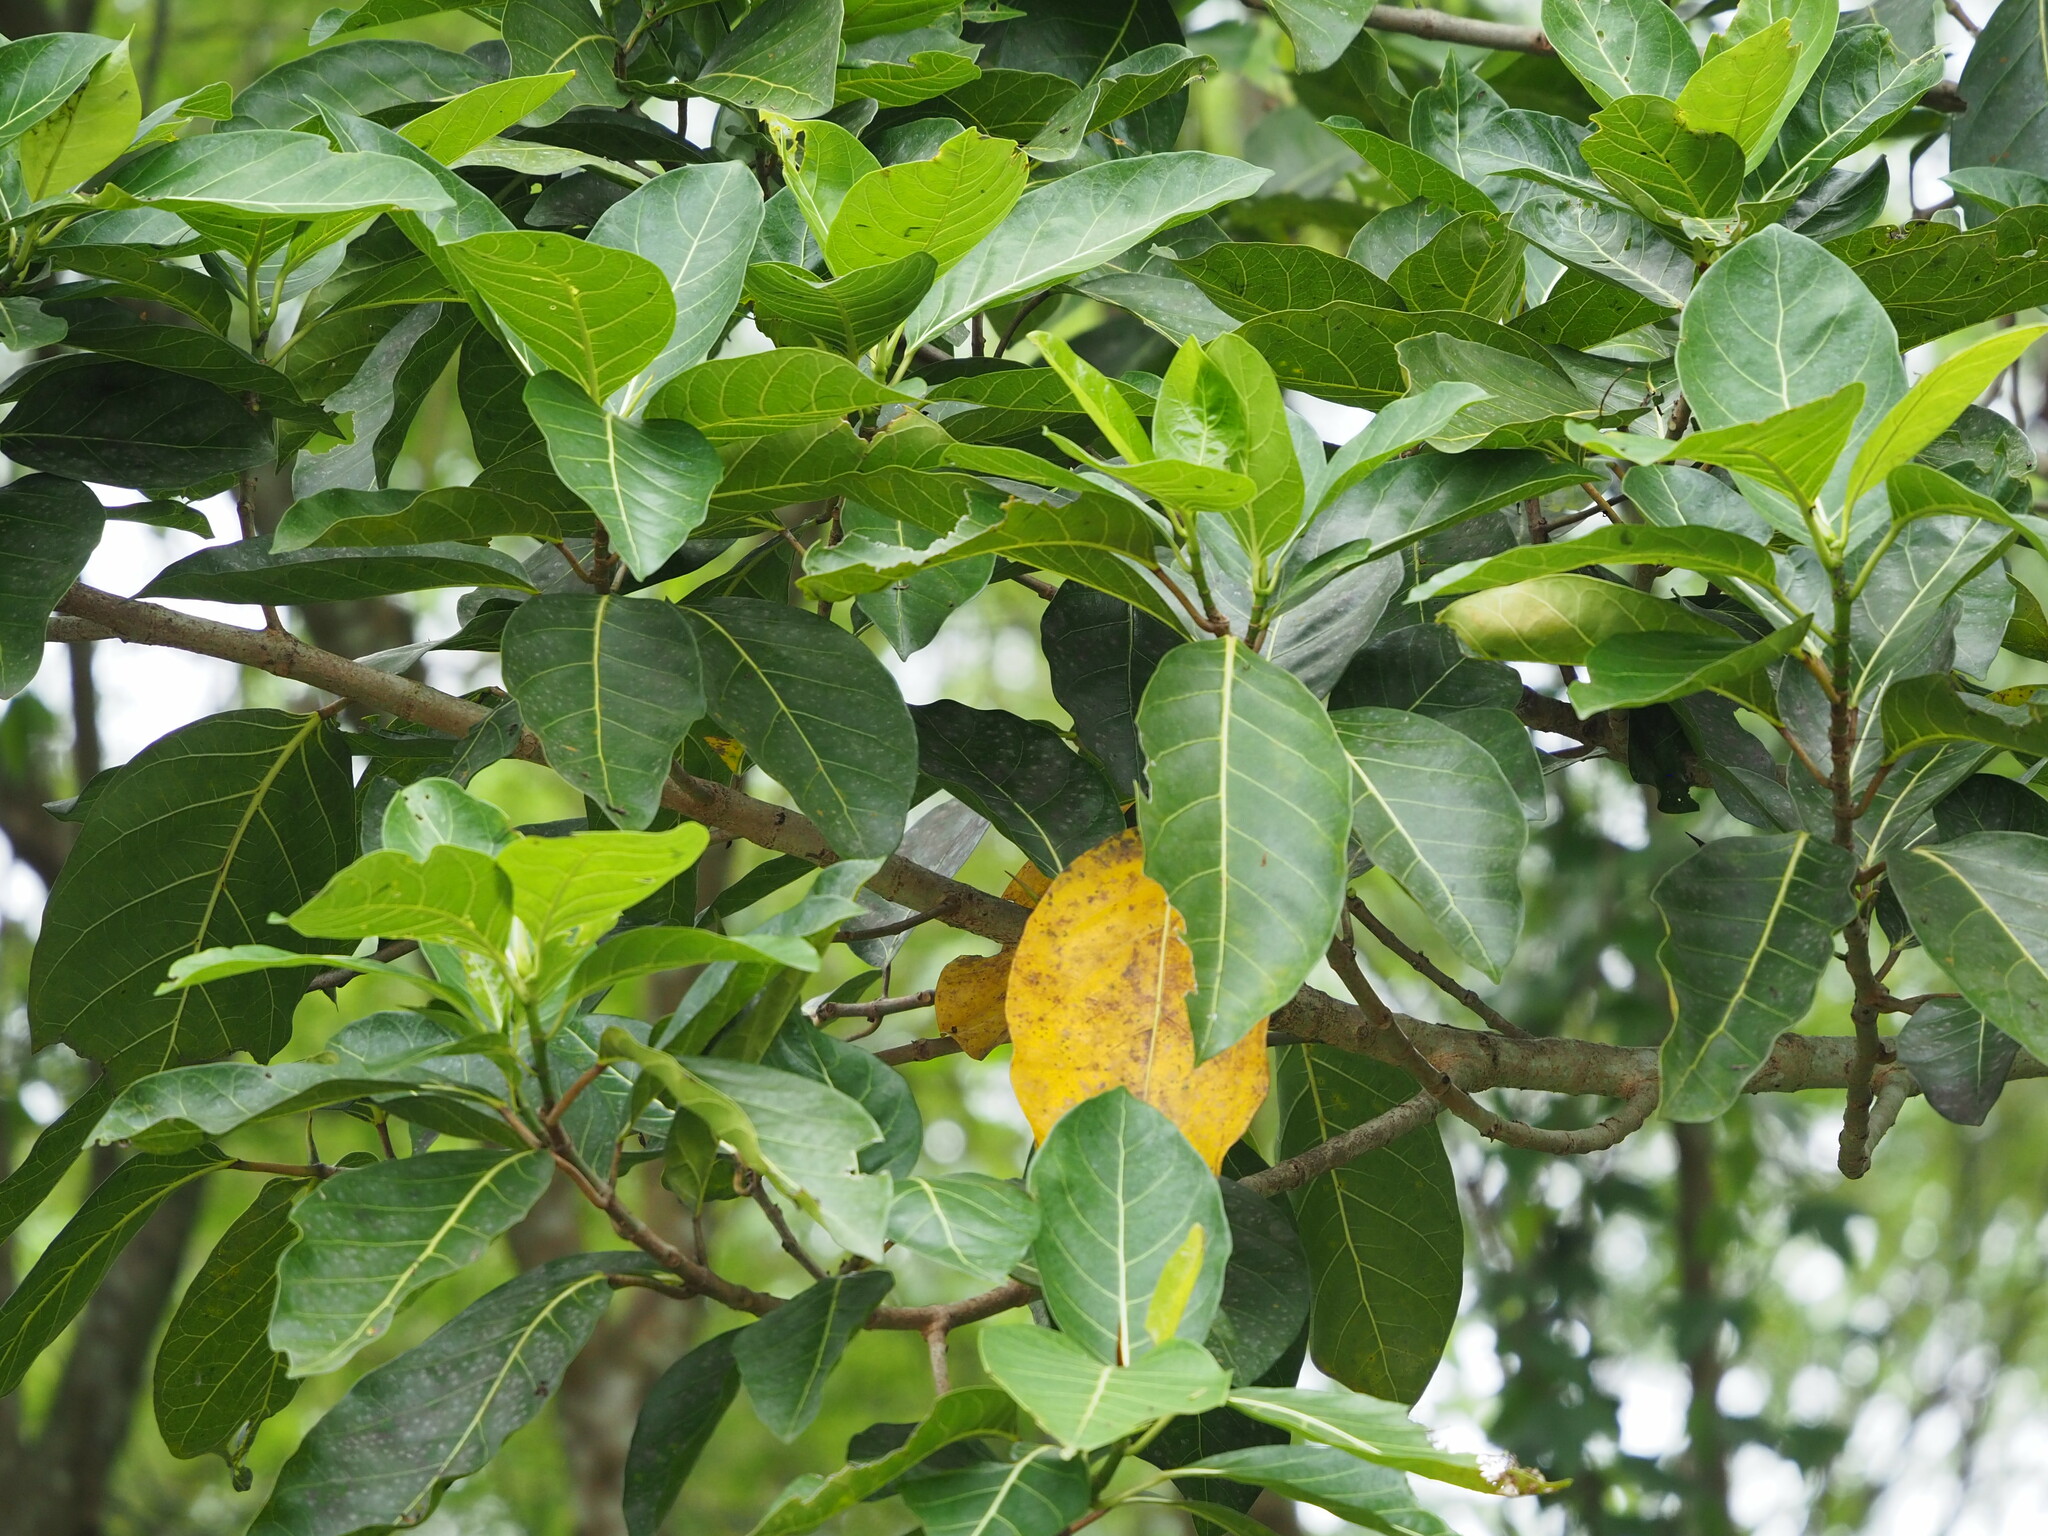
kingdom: Plantae
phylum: Tracheophyta
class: Magnoliopsida
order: Rosales
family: Moraceae
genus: Ficus
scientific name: Ficus septica
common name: Septic fig
